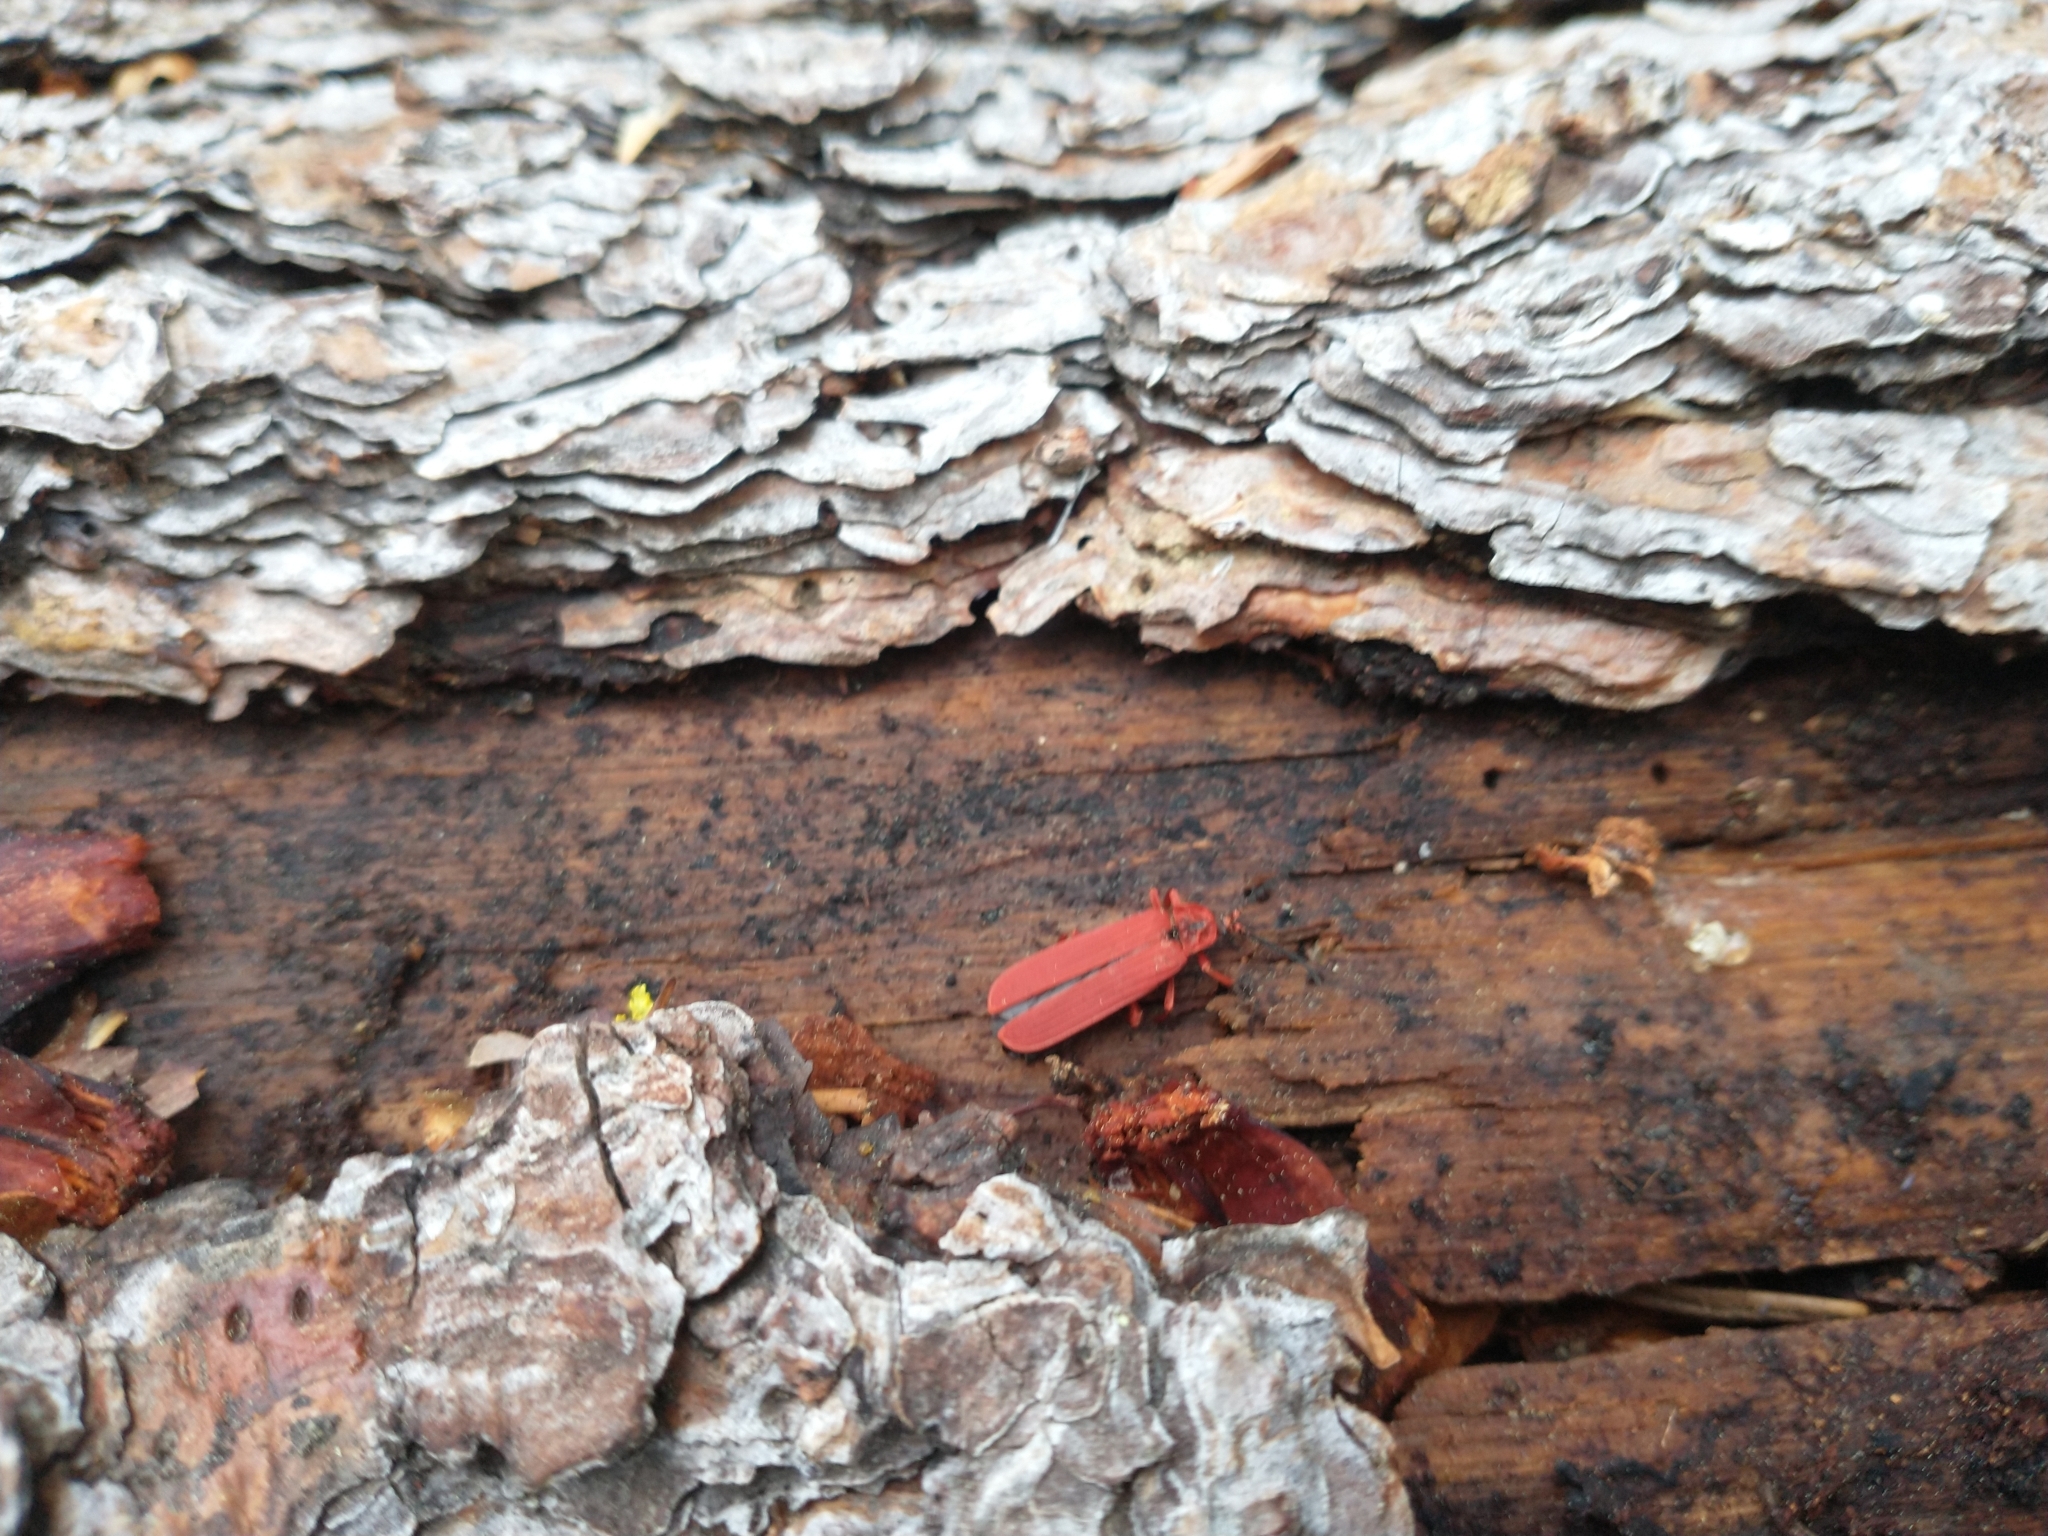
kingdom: Animalia
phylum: Arthropoda
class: Insecta
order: Coleoptera
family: Lycidae
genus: Dictyoptera
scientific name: Dictyoptera simplicipes
